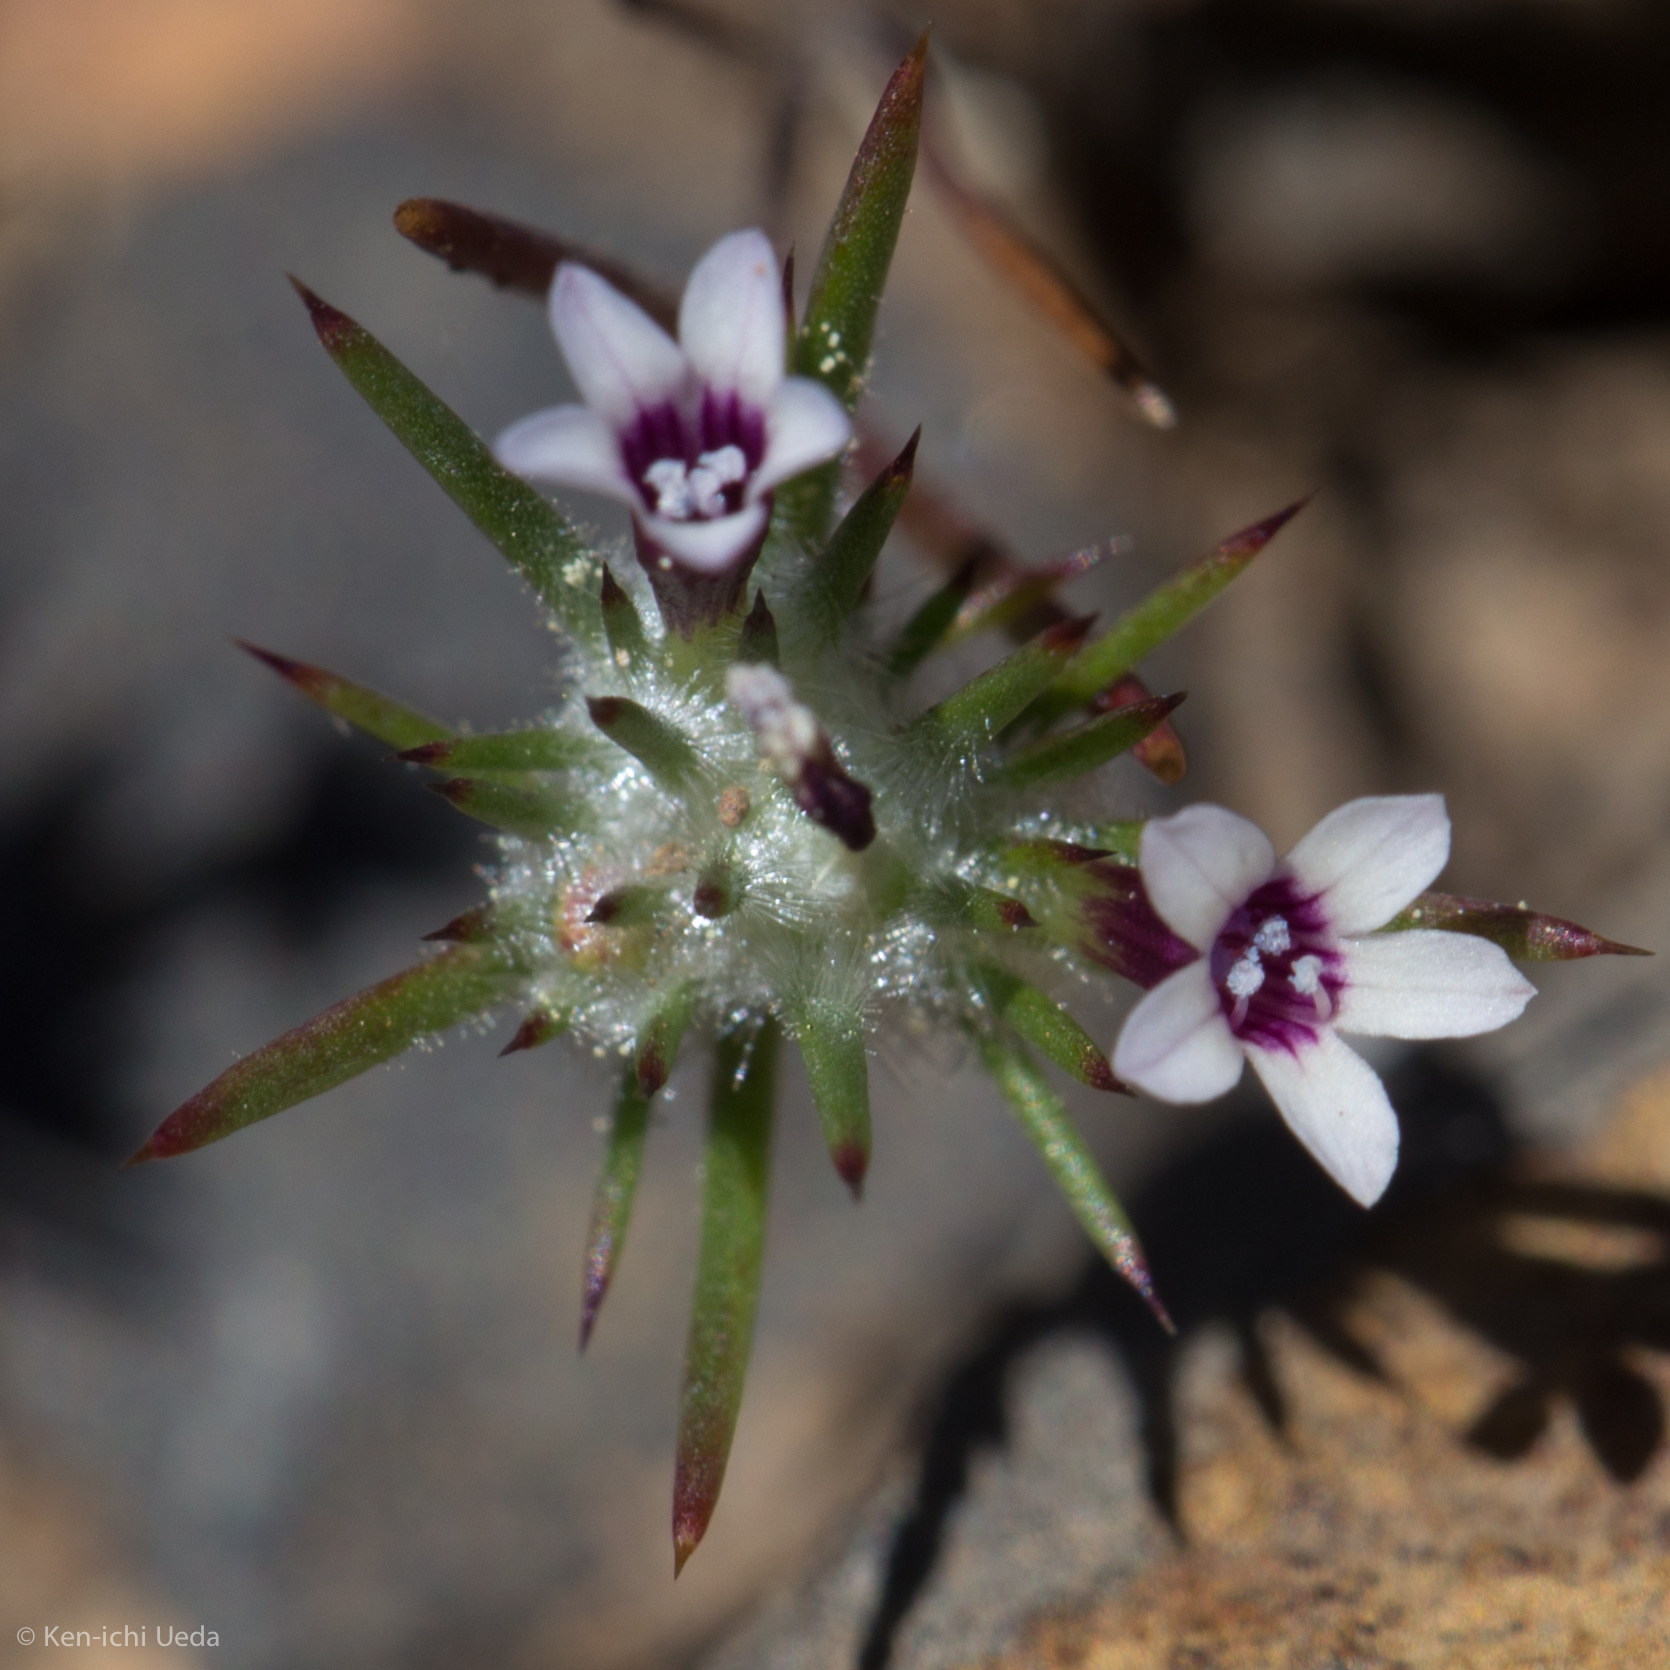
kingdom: Plantae
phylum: Tracheophyta
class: Magnoliopsida
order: Ericales
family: Polemoniaceae
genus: Navarretia
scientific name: Navarretia torreyella
